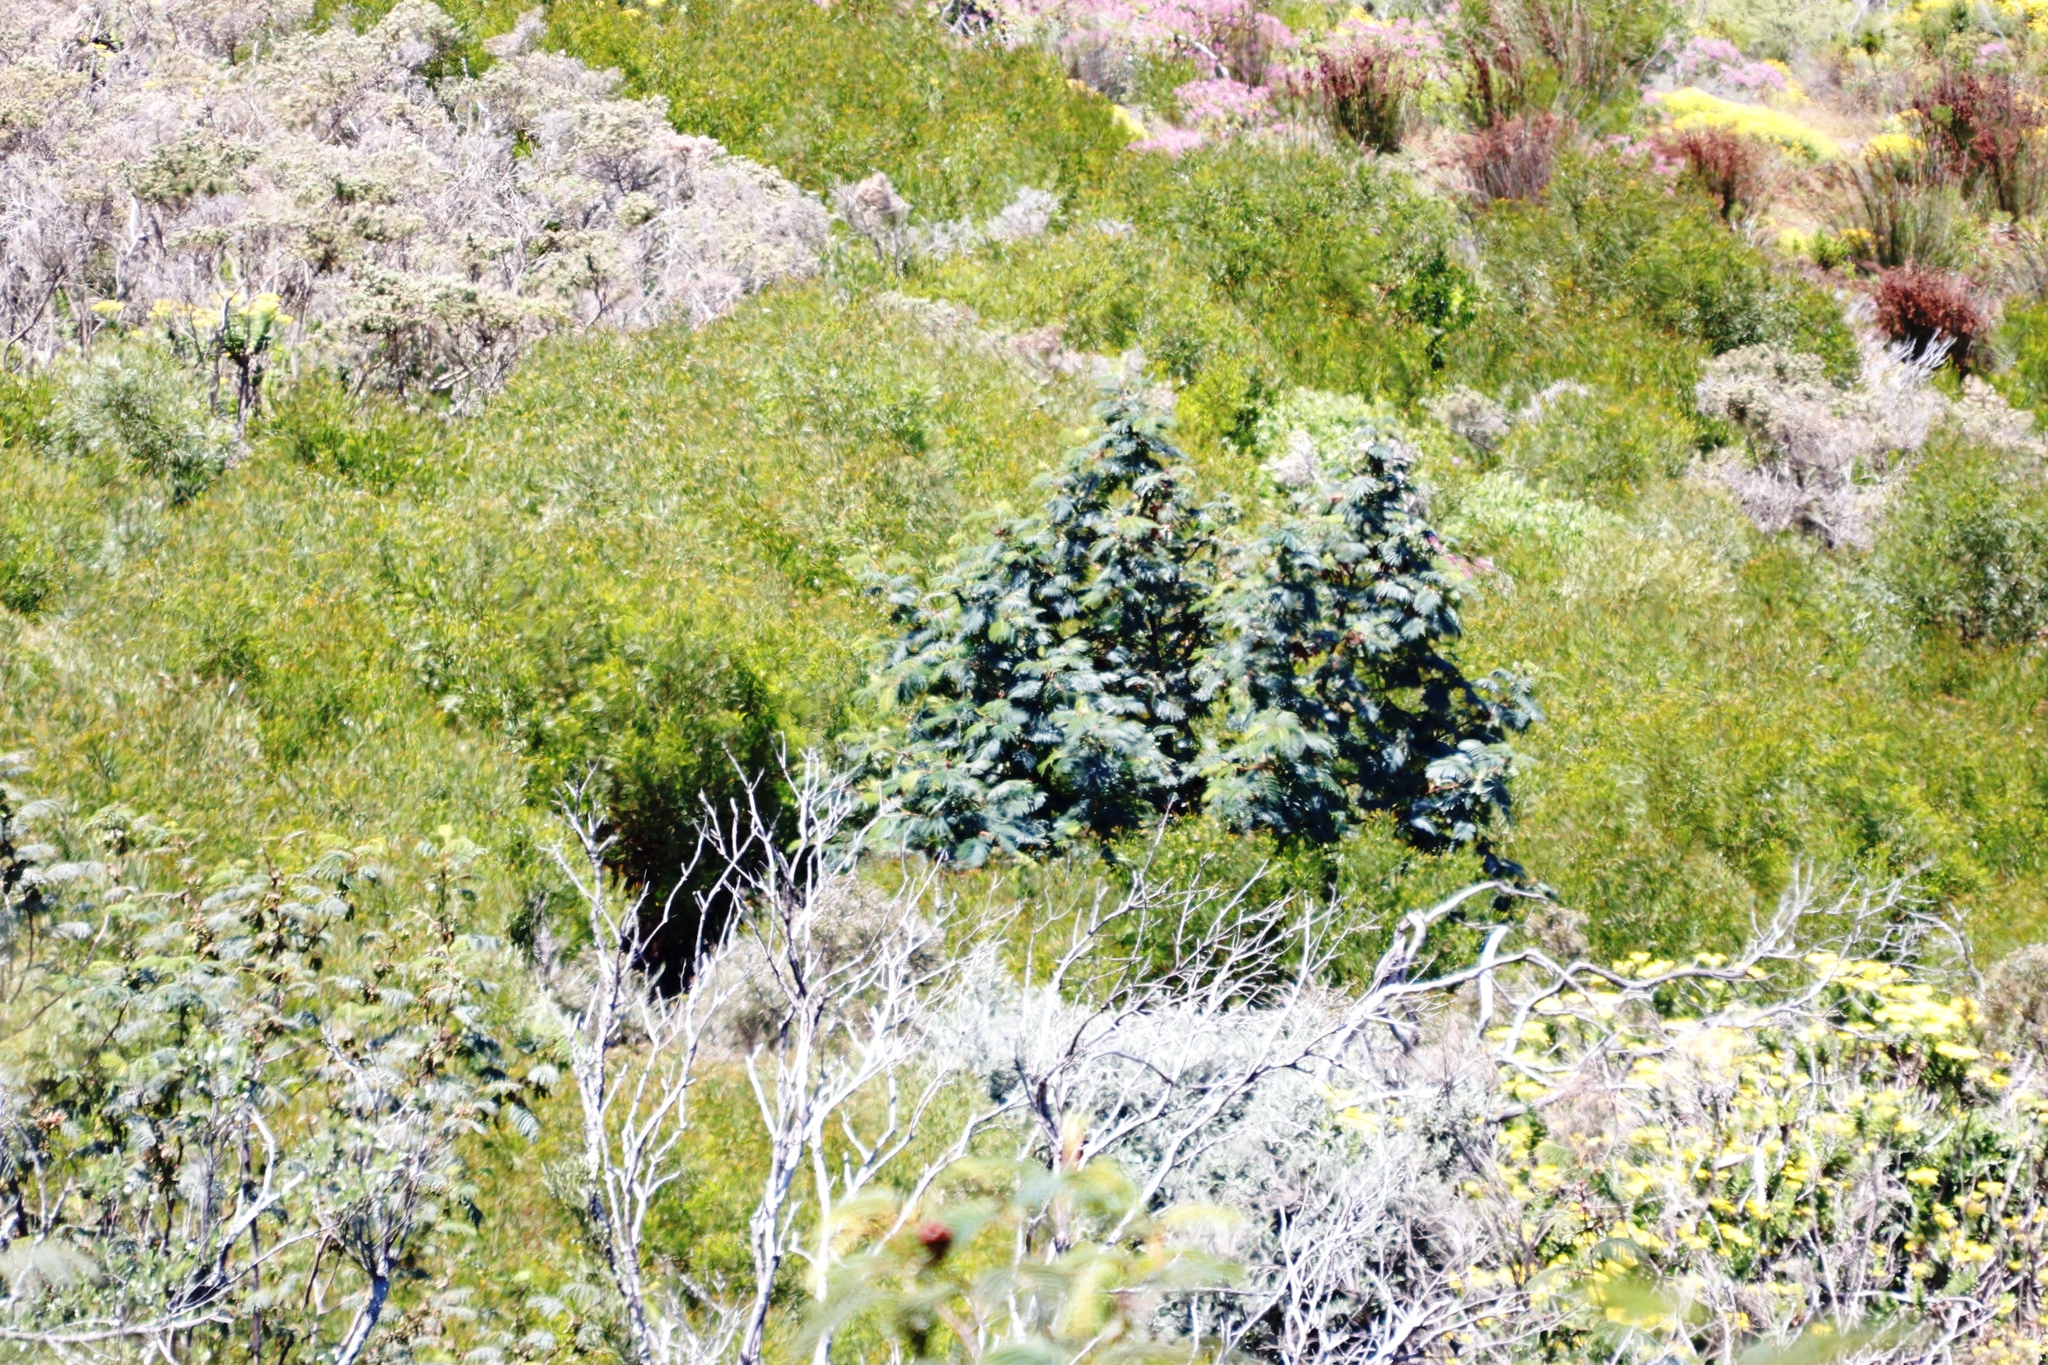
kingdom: Plantae
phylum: Tracheophyta
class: Magnoliopsida
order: Fabales
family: Fabaceae
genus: Paraserianthes
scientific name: Paraserianthes lophantha
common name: Plume albizia
